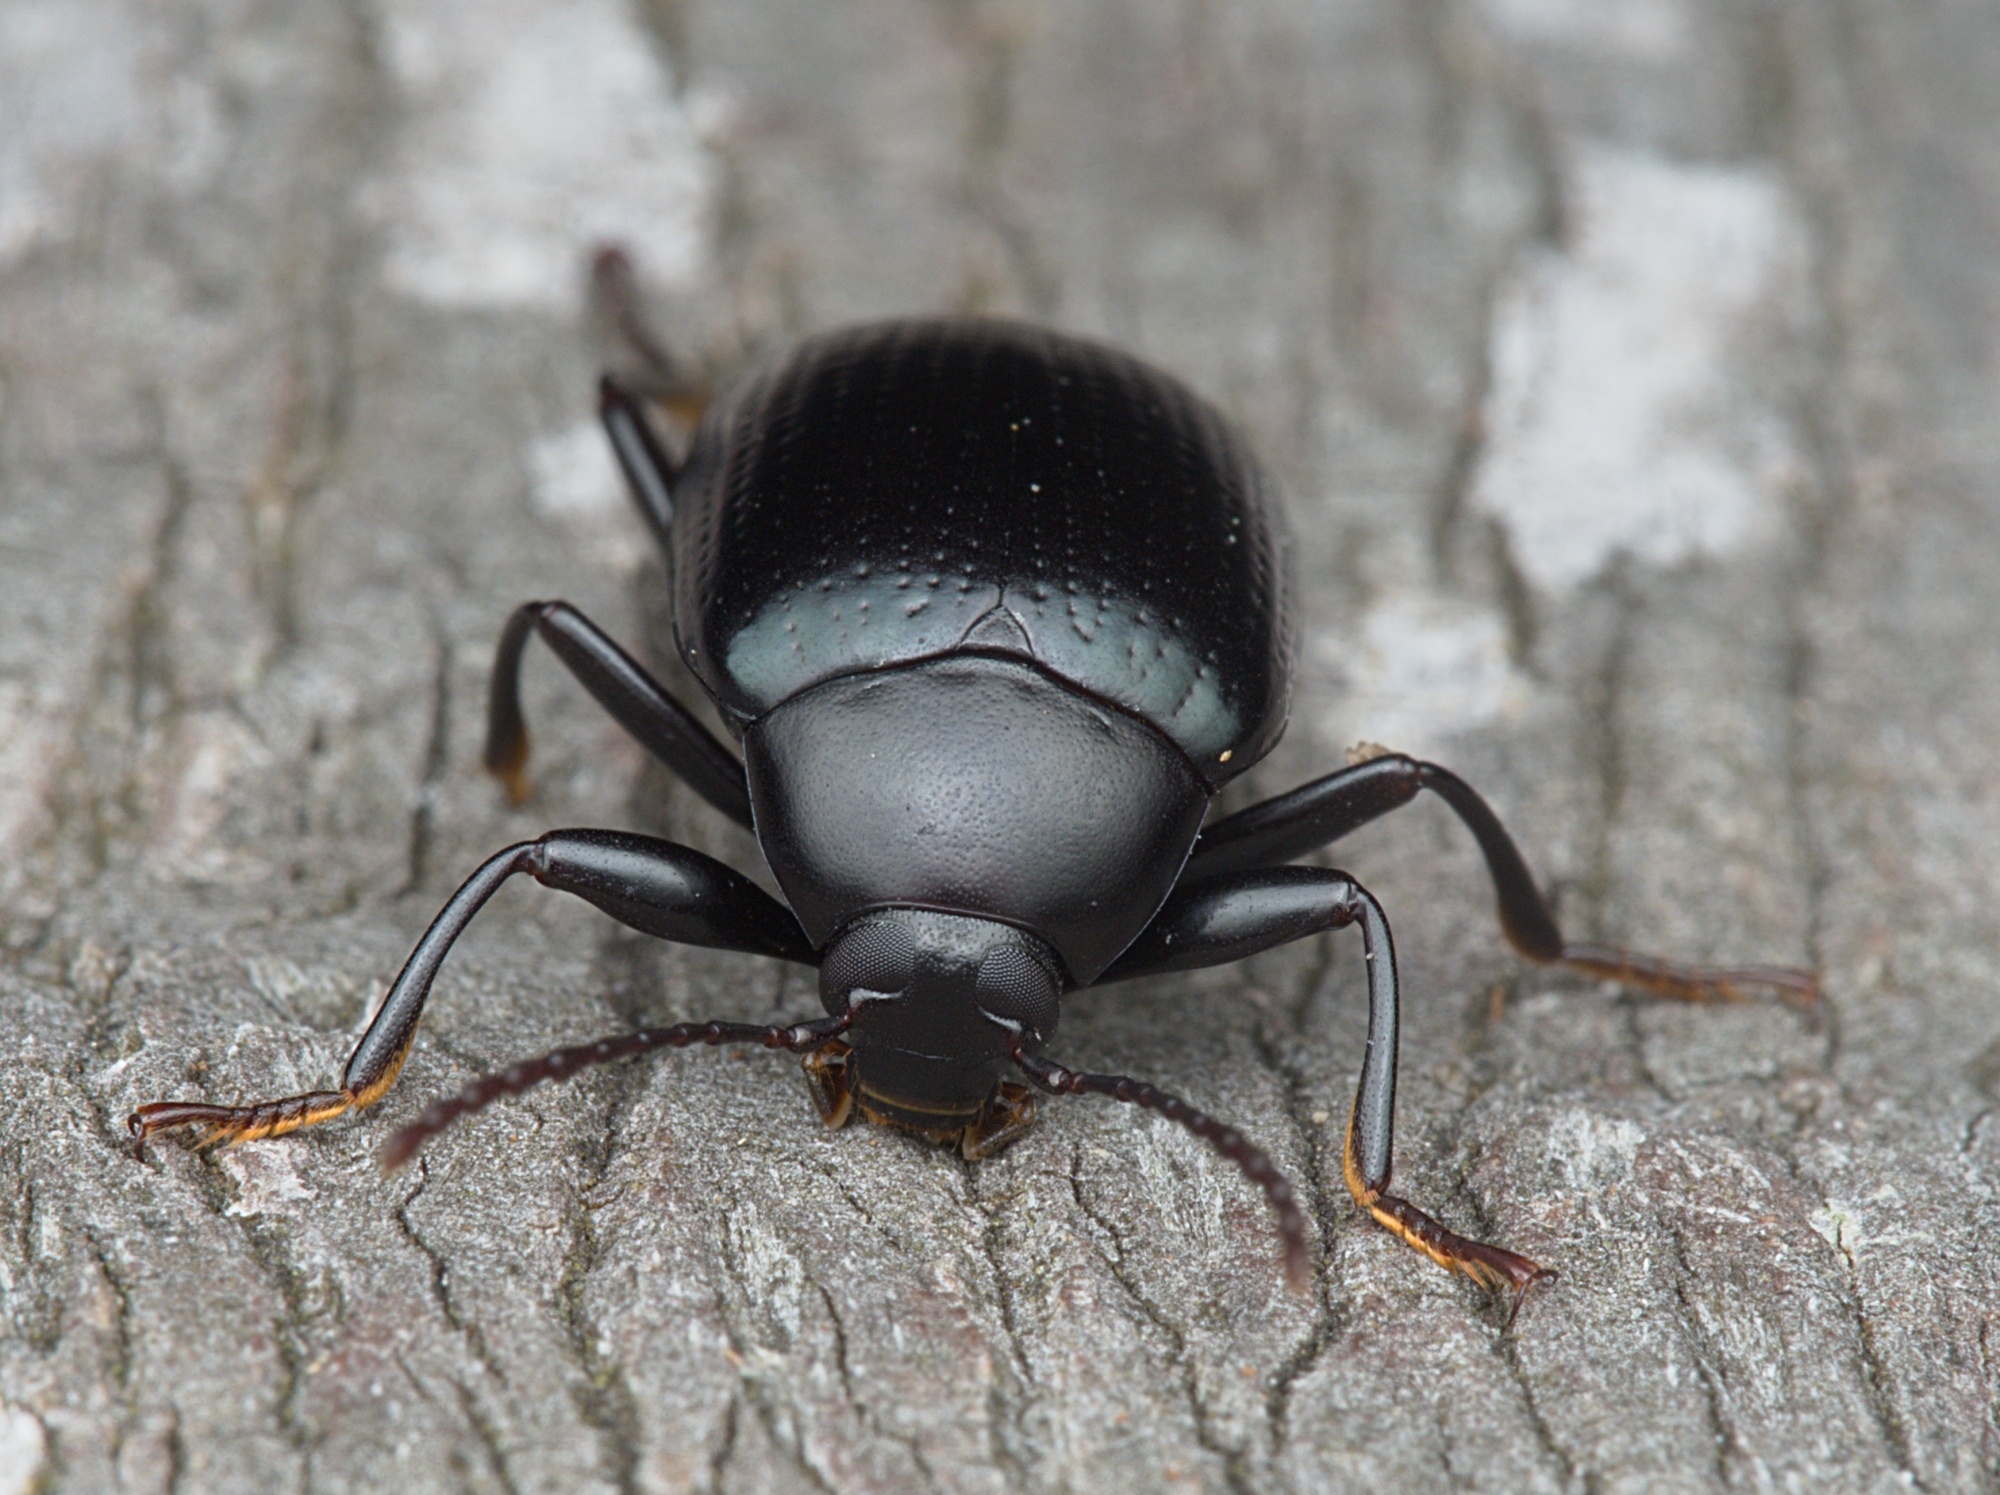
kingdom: Animalia
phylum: Arthropoda
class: Insecta
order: Coleoptera
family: Tenebrionidae
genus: Amarygmus
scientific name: Amarygmus
